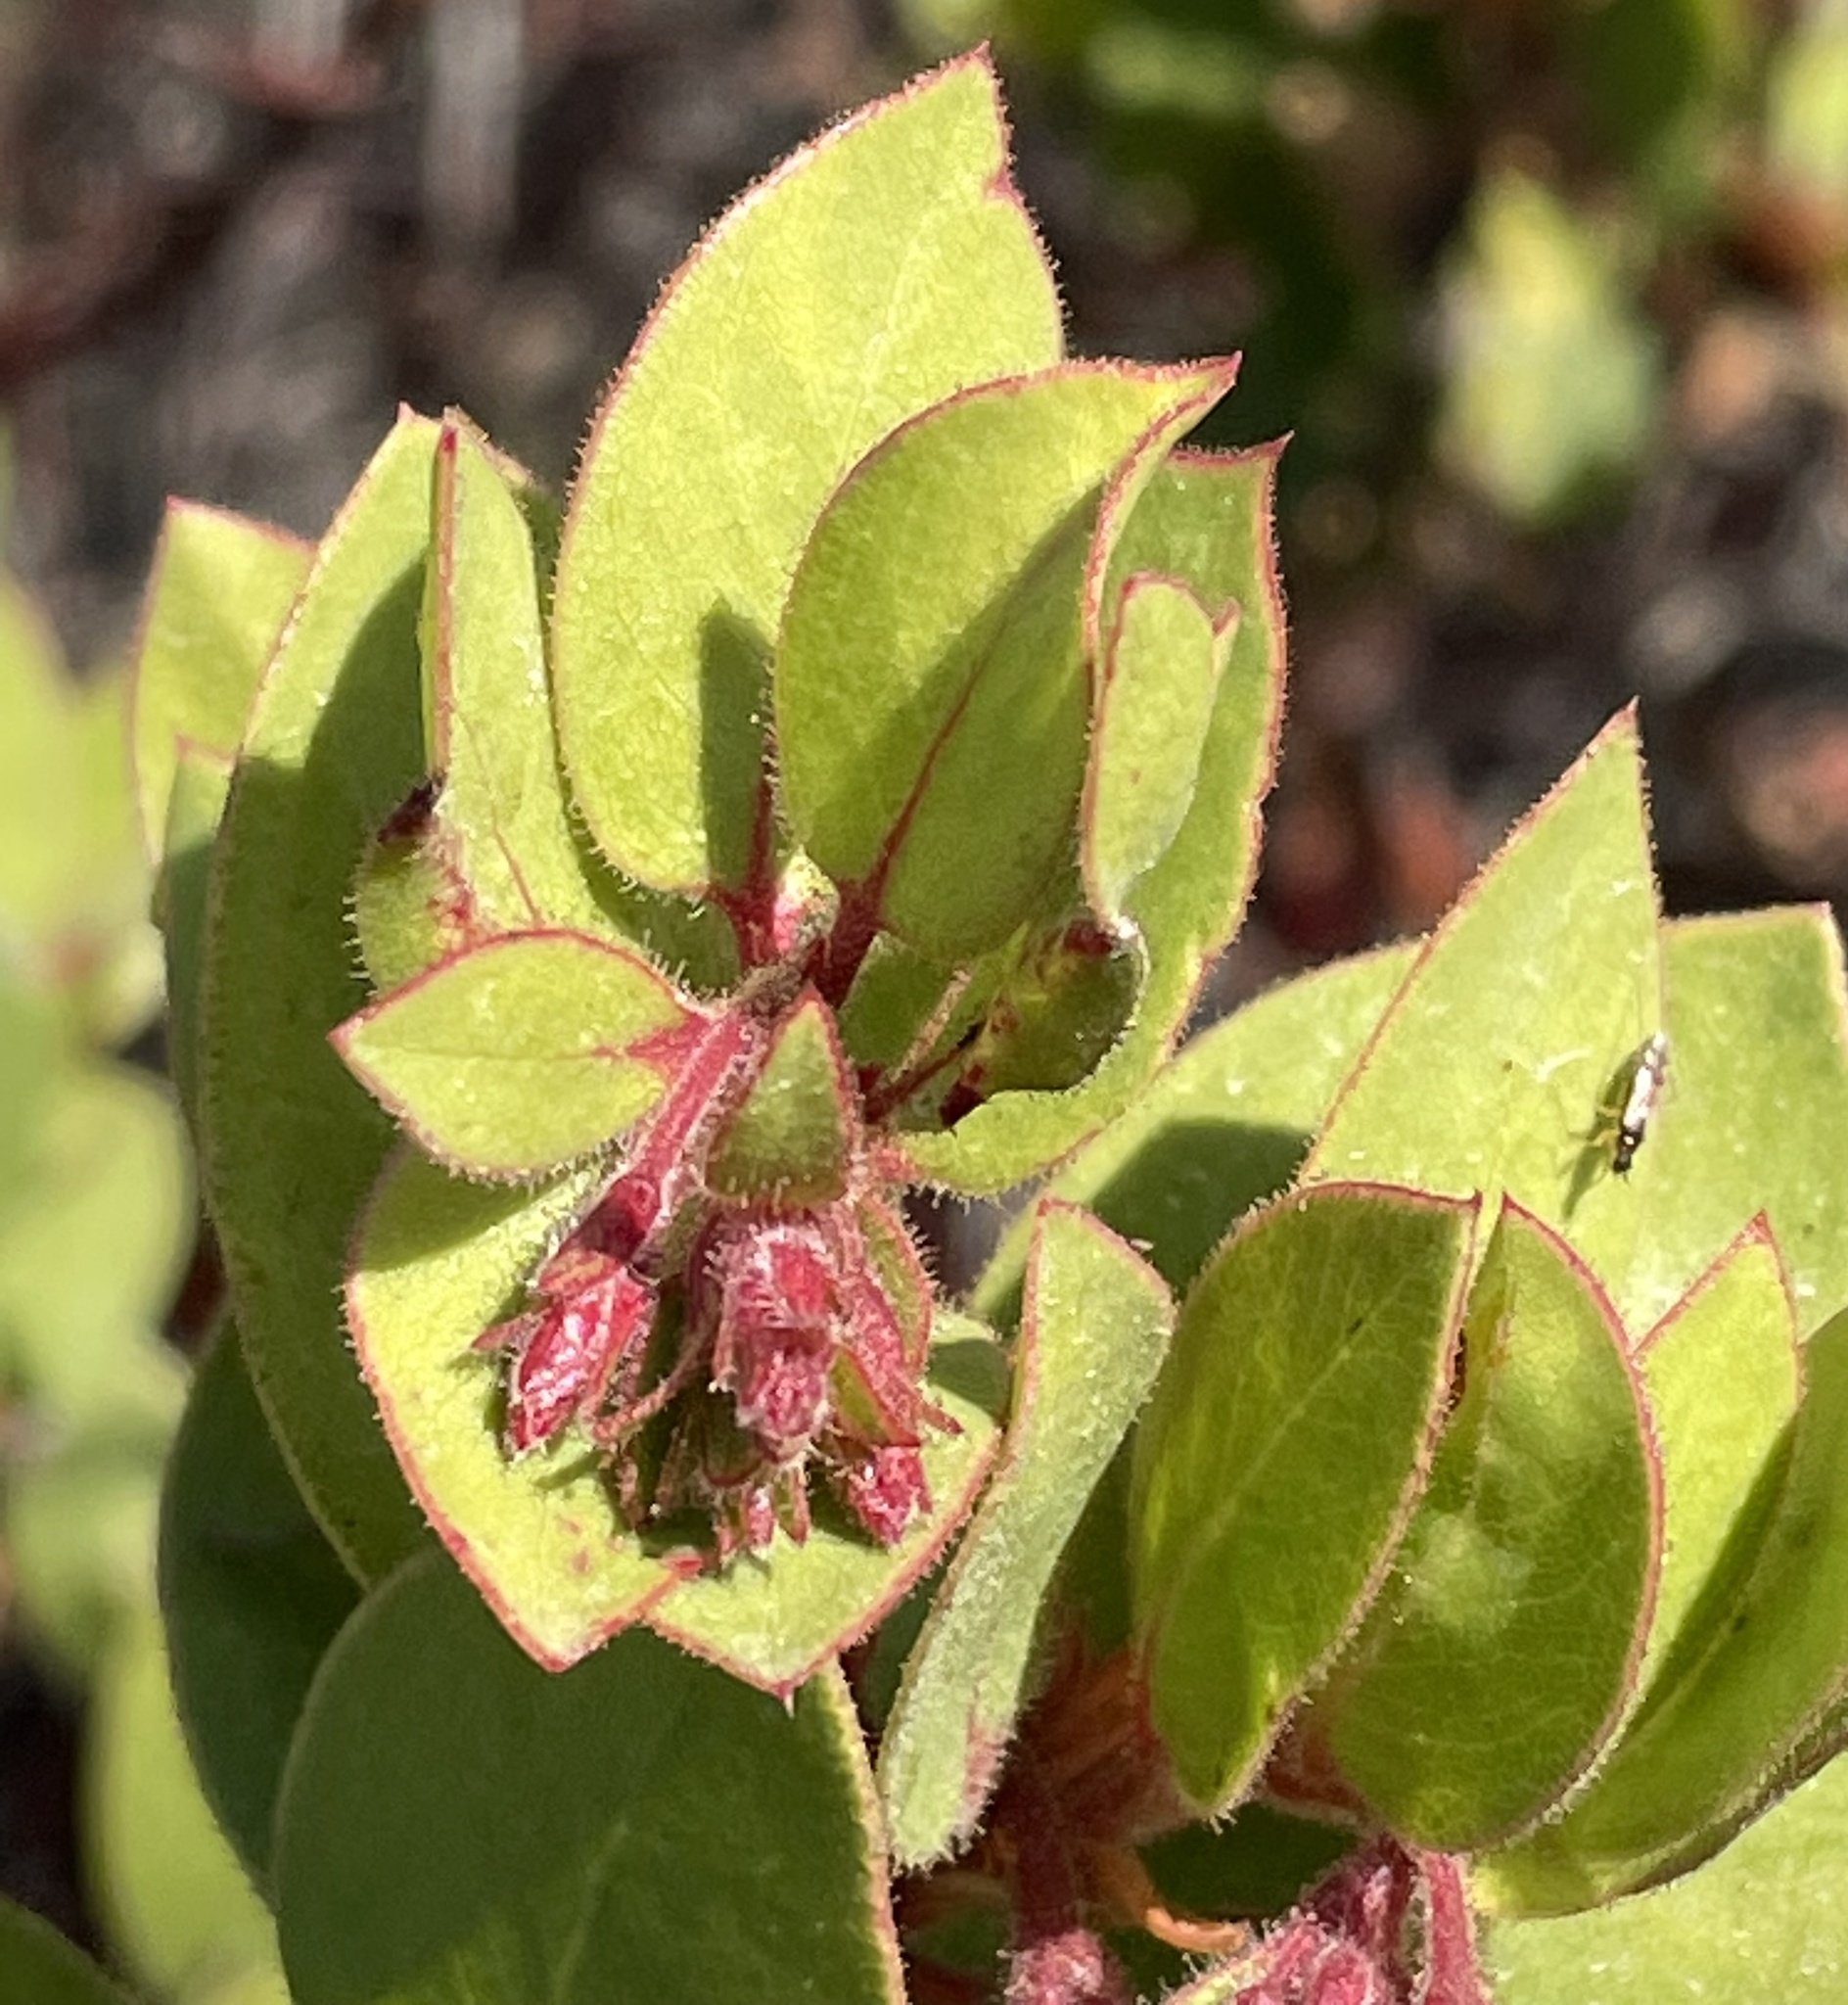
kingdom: Plantae
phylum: Tracheophyta
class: Magnoliopsida
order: Ericales
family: Ericaceae
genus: Arctostaphylos
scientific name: Arctostaphylos montereyensis
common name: Monterey manzanita
